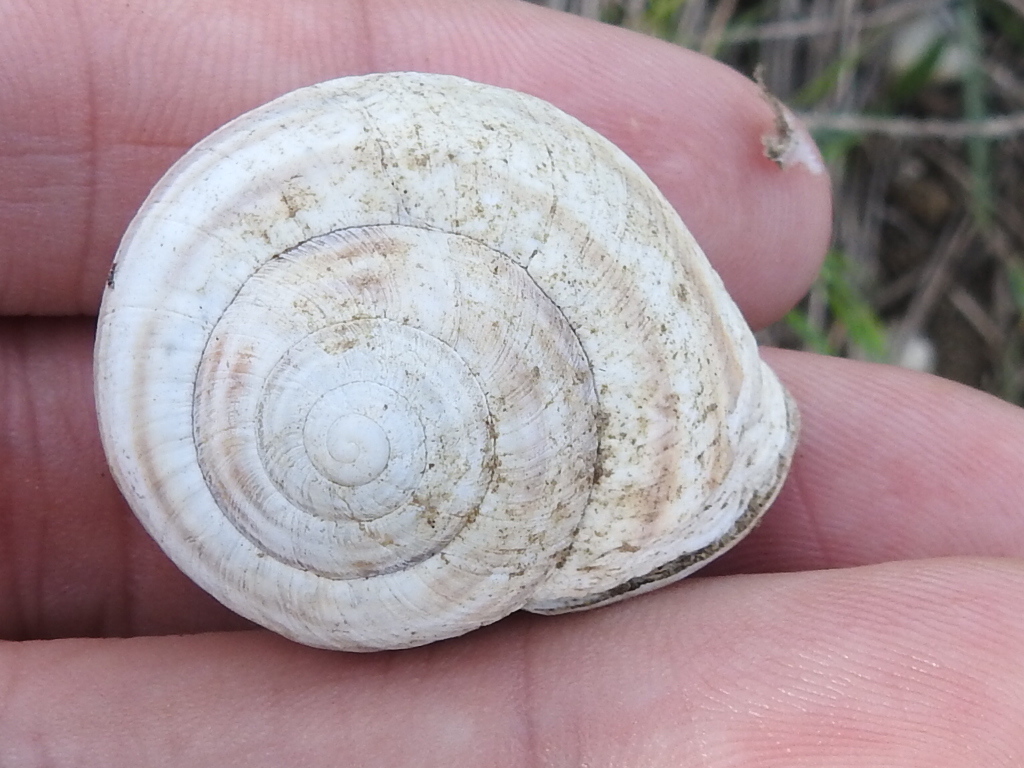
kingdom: Animalia
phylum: Mollusca
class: Gastropoda
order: Stylommatophora
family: Helicidae
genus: Otala
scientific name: Otala lactea
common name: Milk snail
